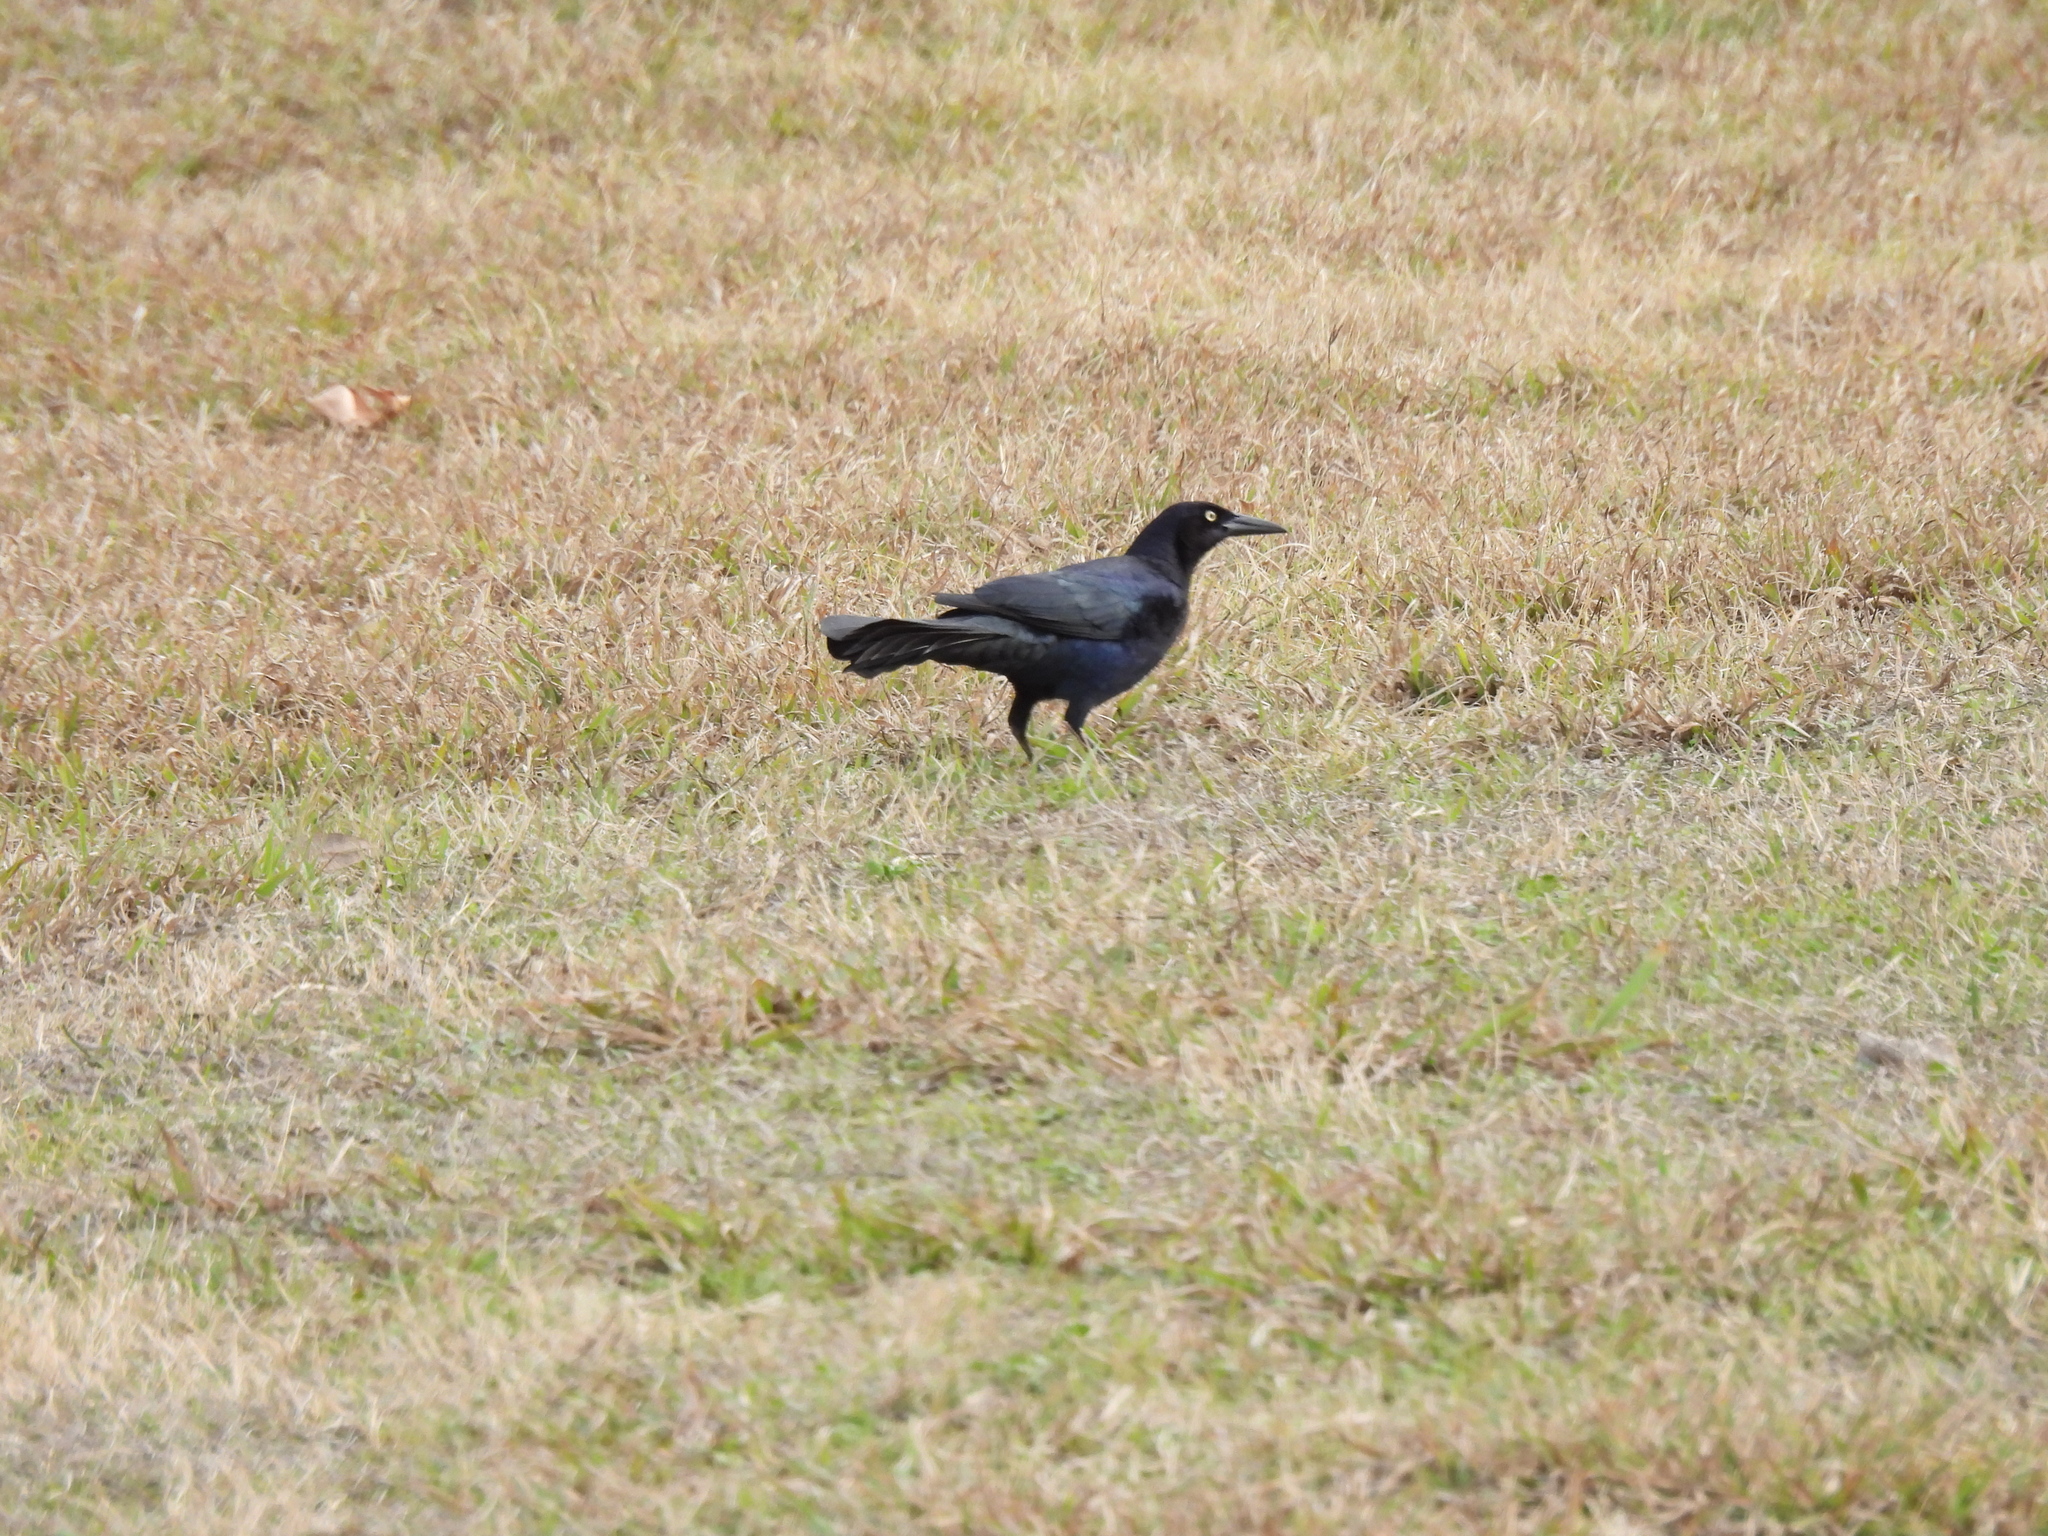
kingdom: Animalia
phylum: Chordata
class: Aves
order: Passeriformes
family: Icteridae
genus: Quiscalus
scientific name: Quiscalus mexicanus
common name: Great-tailed grackle
